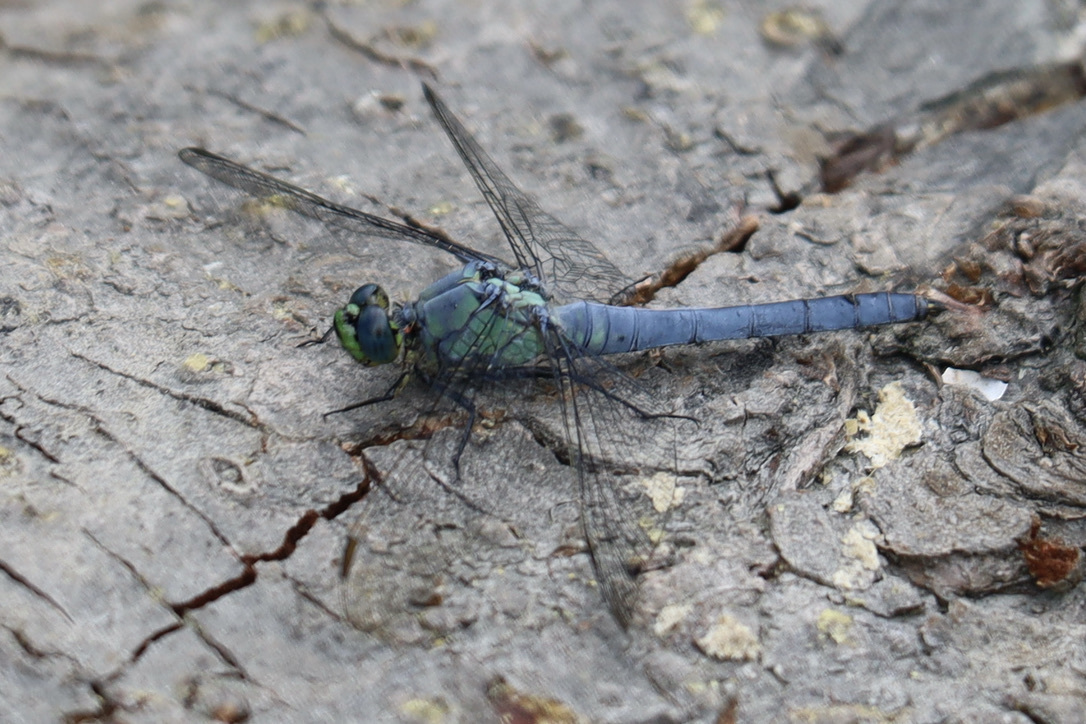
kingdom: Animalia
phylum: Arthropoda
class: Insecta
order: Odonata
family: Libellulidae
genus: Erythemis
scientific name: Erythemis collocata
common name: Western pondhawk
